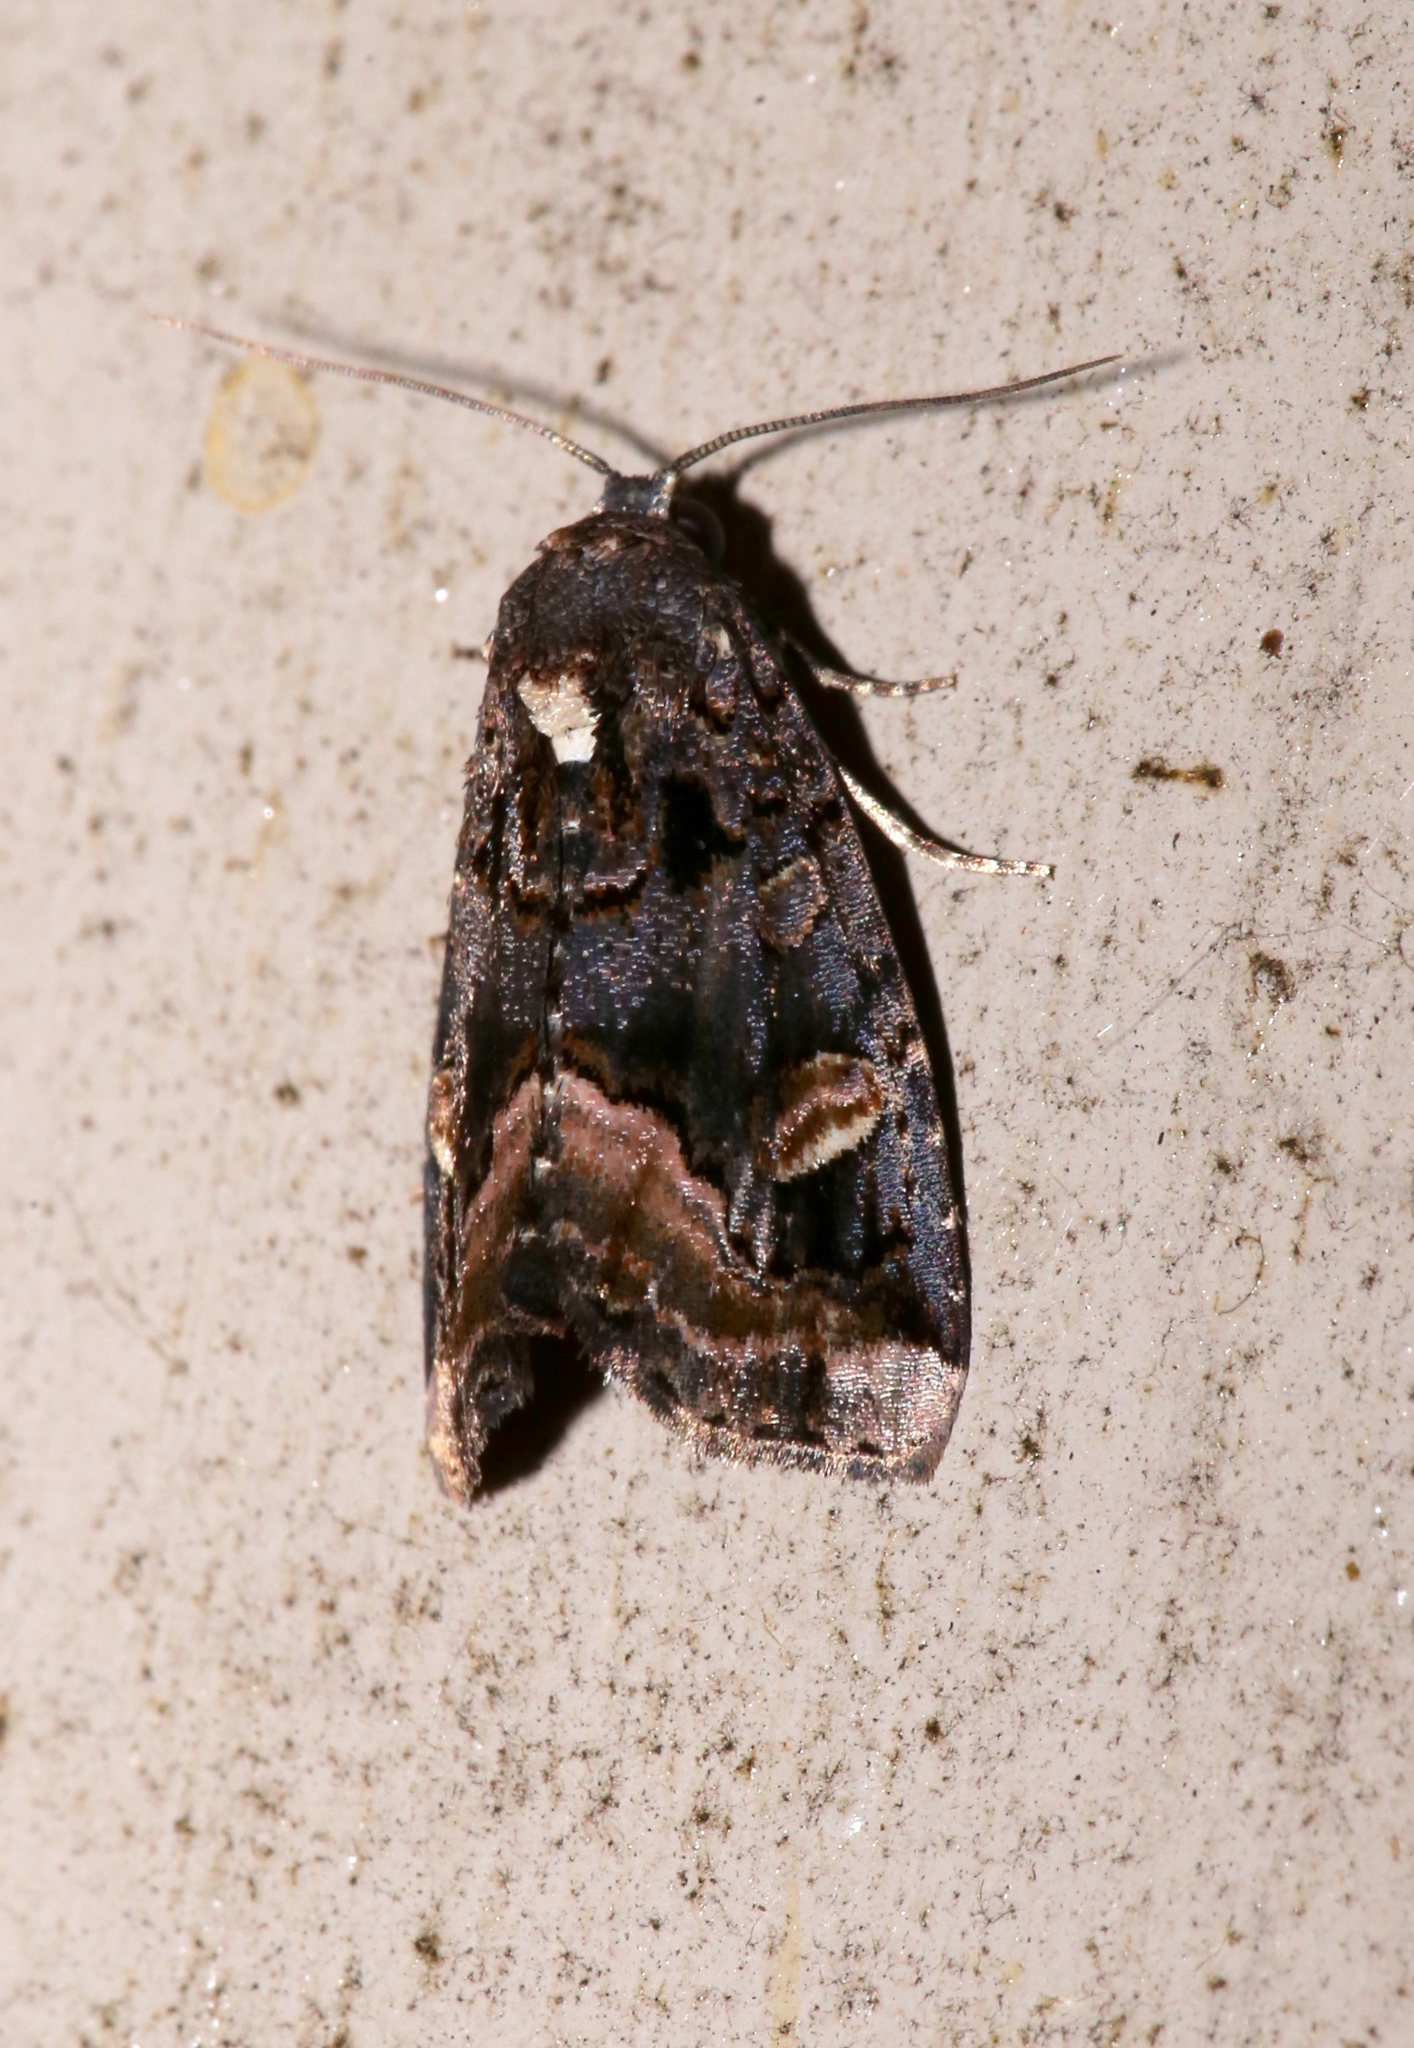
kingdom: Animalia
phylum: Arthropoda
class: Insecta
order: Lepidoptera
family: Noctuidae
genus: Homophoberia
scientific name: Homophoberia apicosa
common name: Black wedge-spot
